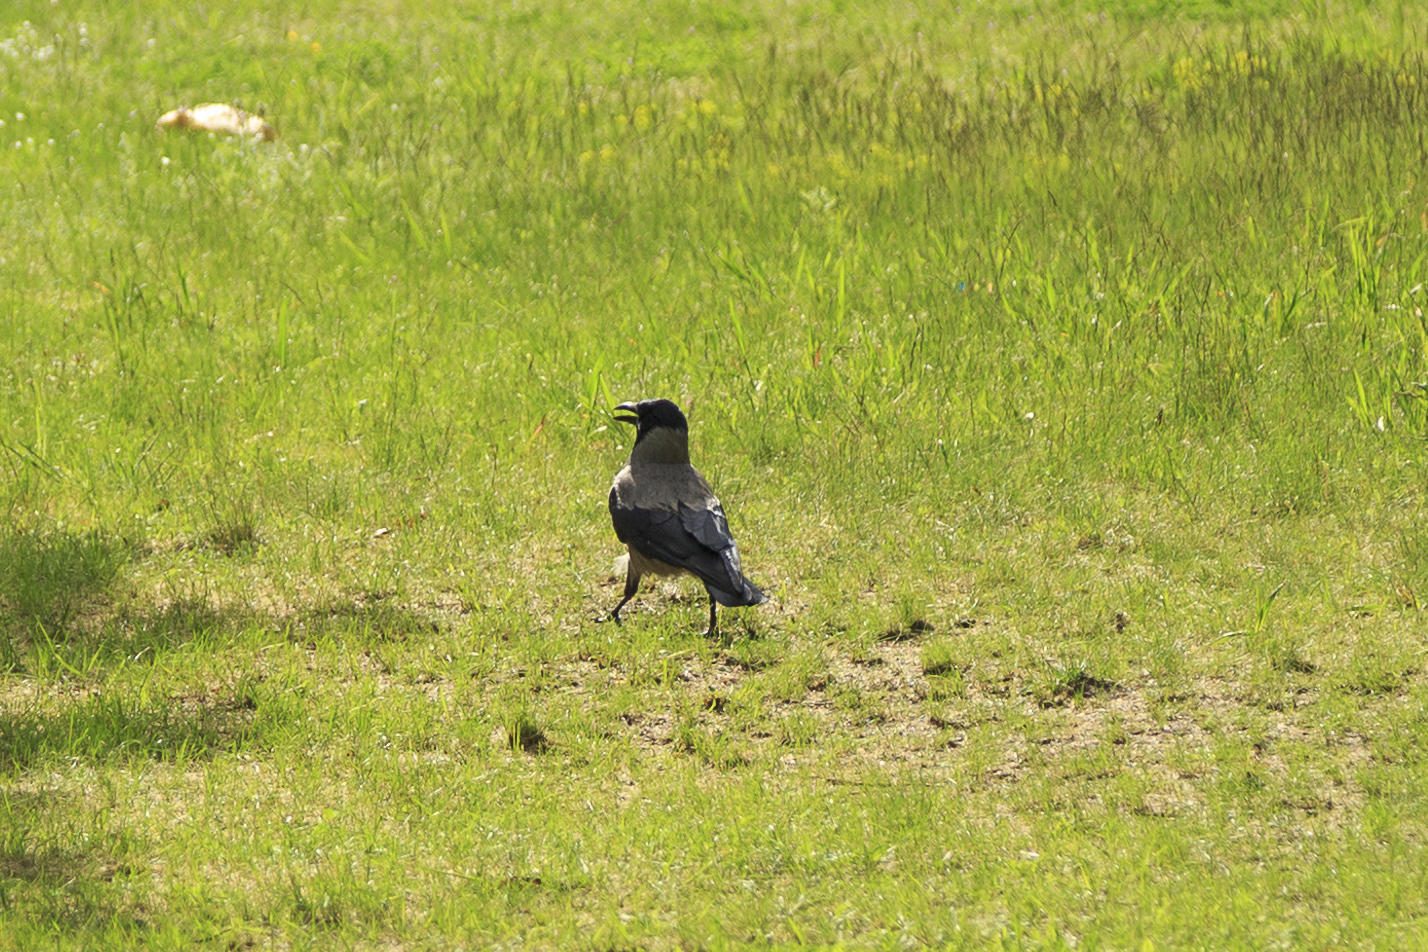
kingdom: Animalia
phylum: Chordata
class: Aves
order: Passeriformes
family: Corvidae
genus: Corvus
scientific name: Corvus cornix
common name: Hooded crow
